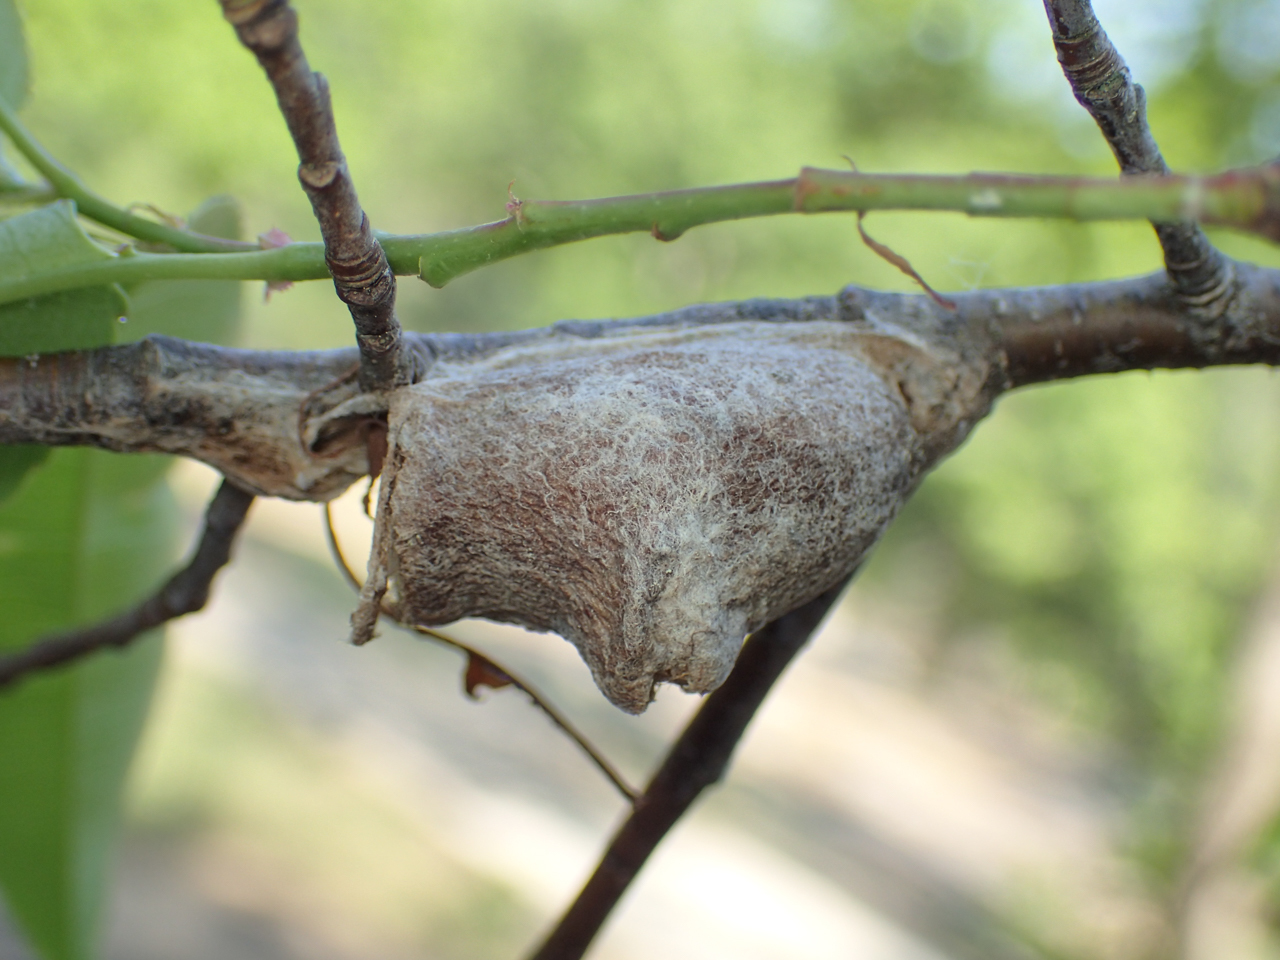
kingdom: Animalia
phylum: Arthropoda
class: Insecta
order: Lepidoptera
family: Megalopygidae
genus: Megalopyge
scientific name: Megalopyge
